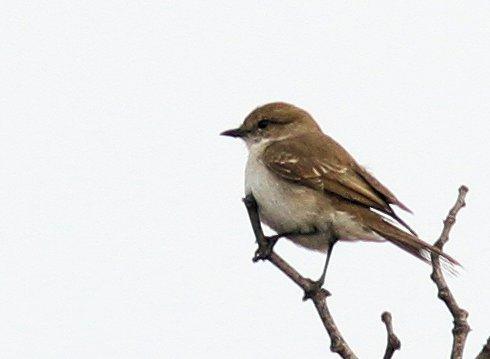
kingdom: Animalia
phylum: Chordata
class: Aves
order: Passeriformes
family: Muscicapidae
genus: Bradornis
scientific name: Bradornis mariquensis
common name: Marico flycatcher
